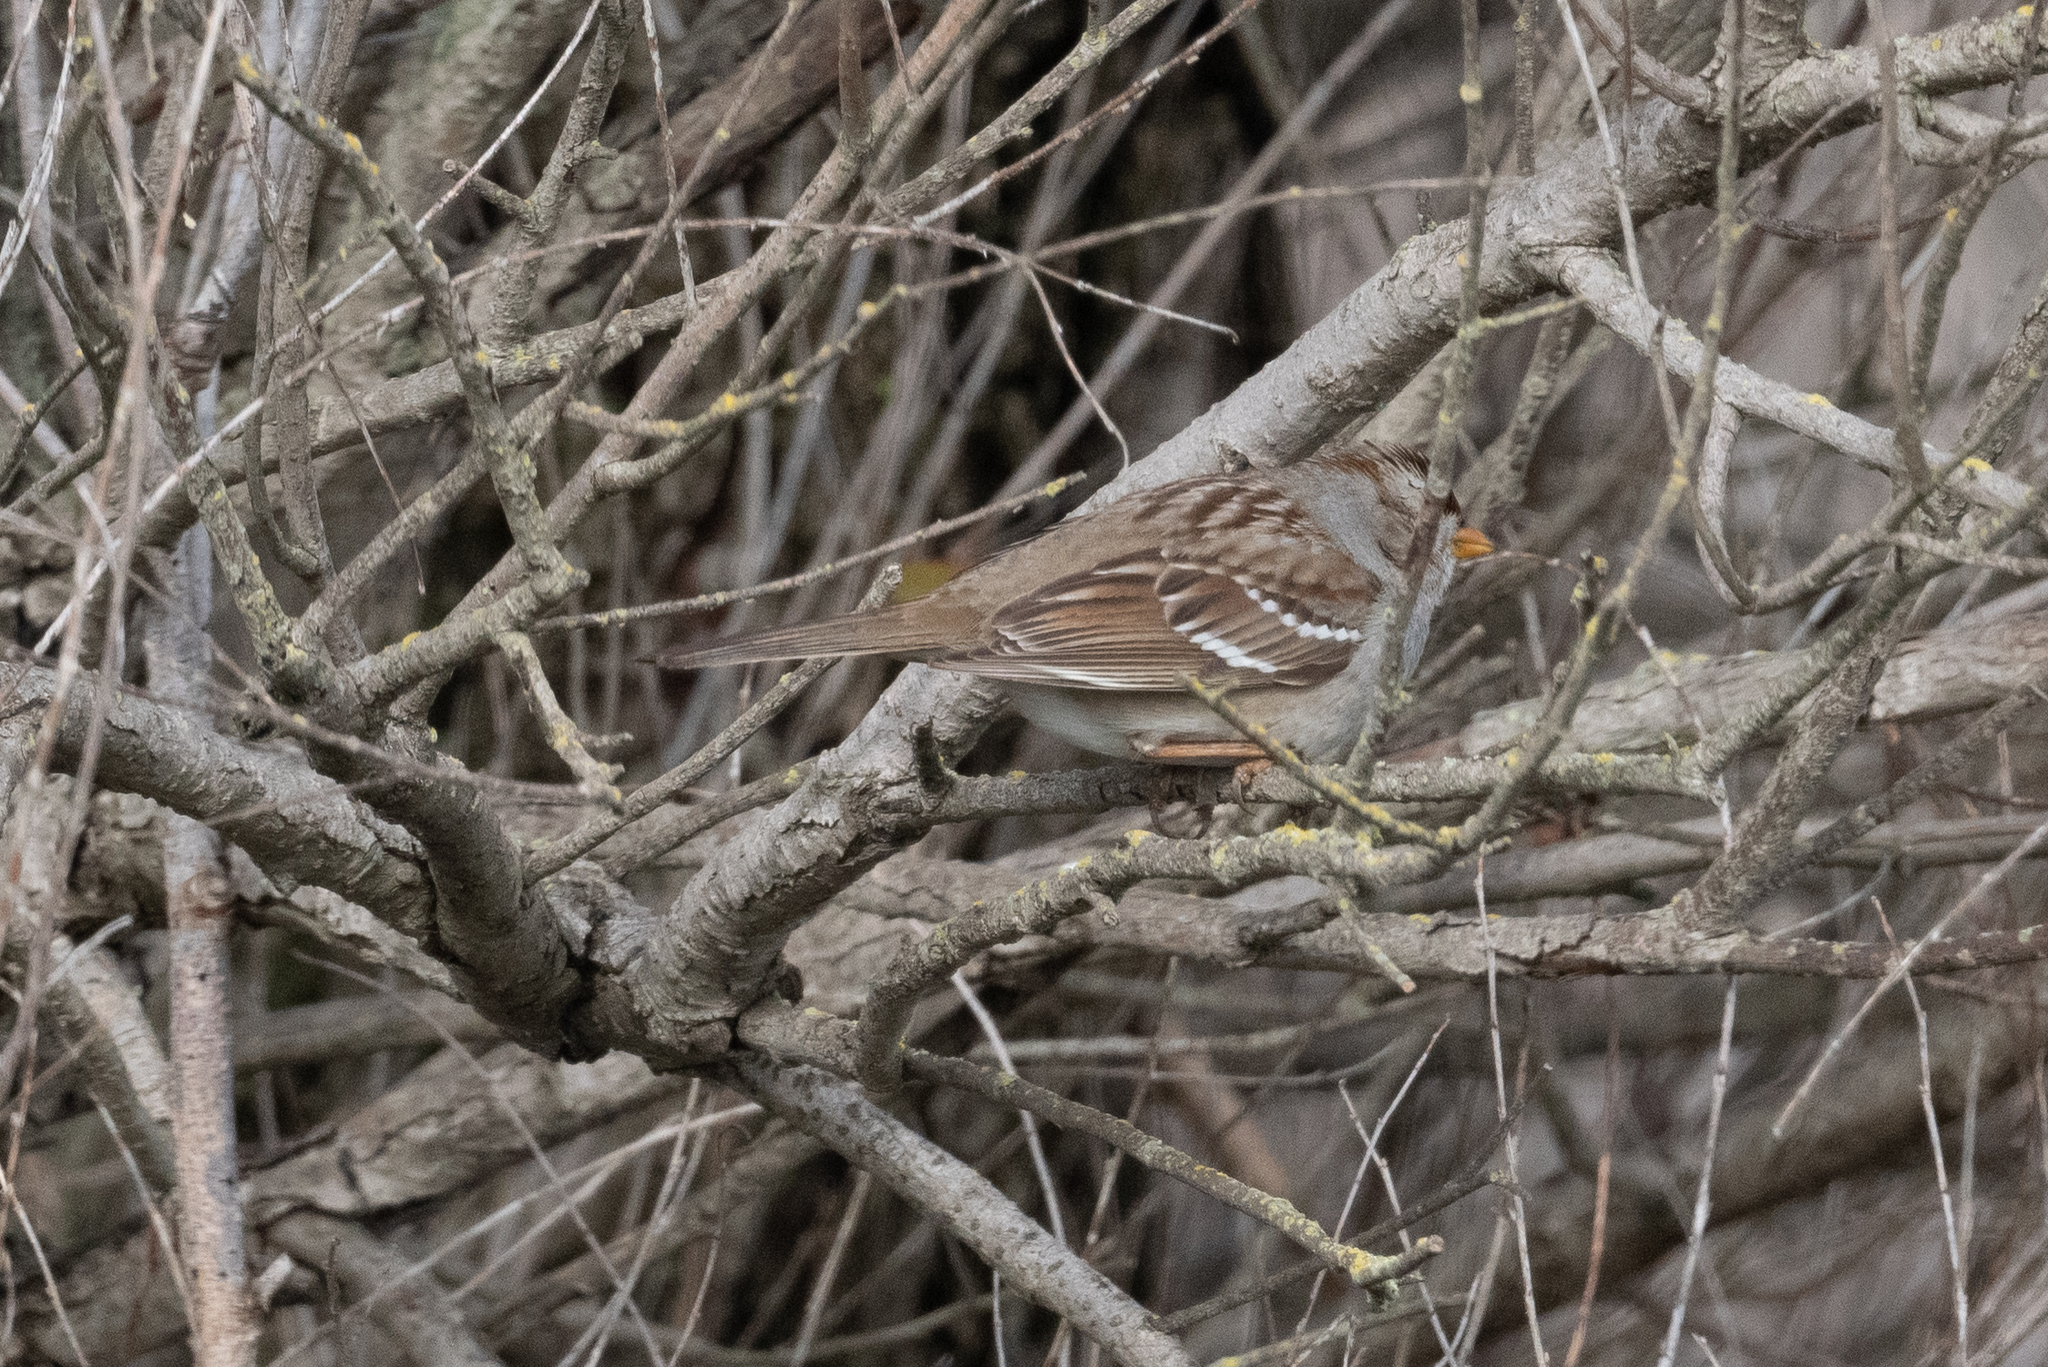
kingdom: Animalia
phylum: Chordata
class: Aves
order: Passeriformes
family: Passerellidae
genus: Zonotrichia
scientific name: Zonotrichia leucophrys
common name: White-crowned sparrow
